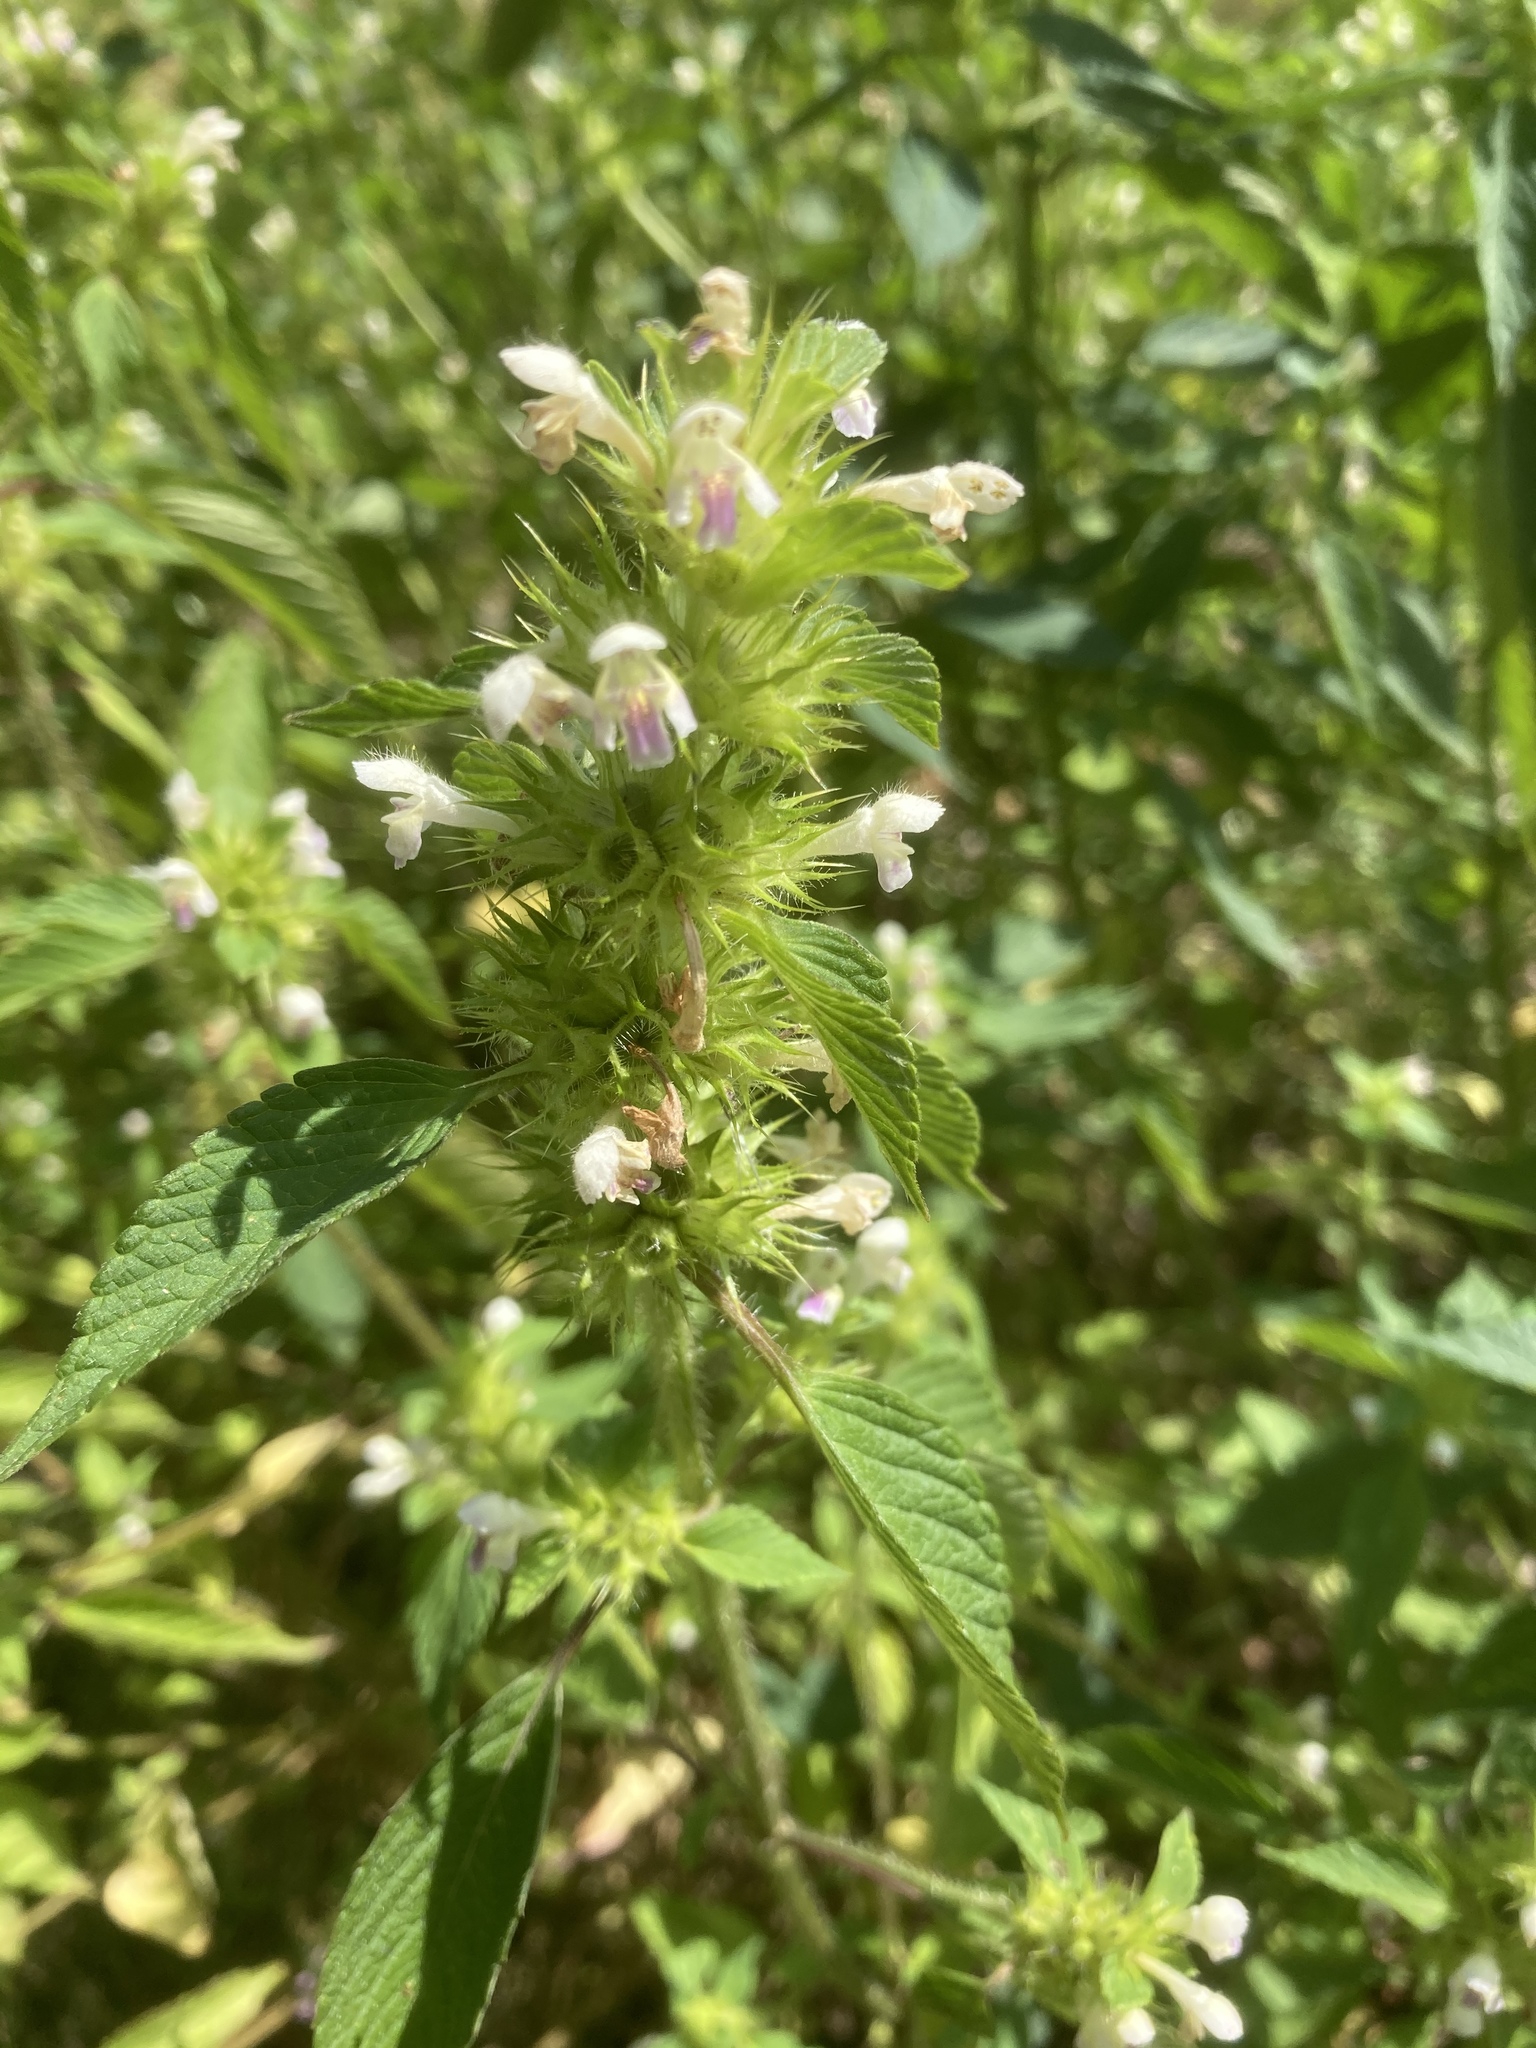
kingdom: Plantae
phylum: Tracheophyta
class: Magnoliopsida
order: Lamiales
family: Lamiaceae
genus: Galeopsis
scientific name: Galeopsis tetrahit
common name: Common hemp-nettle
